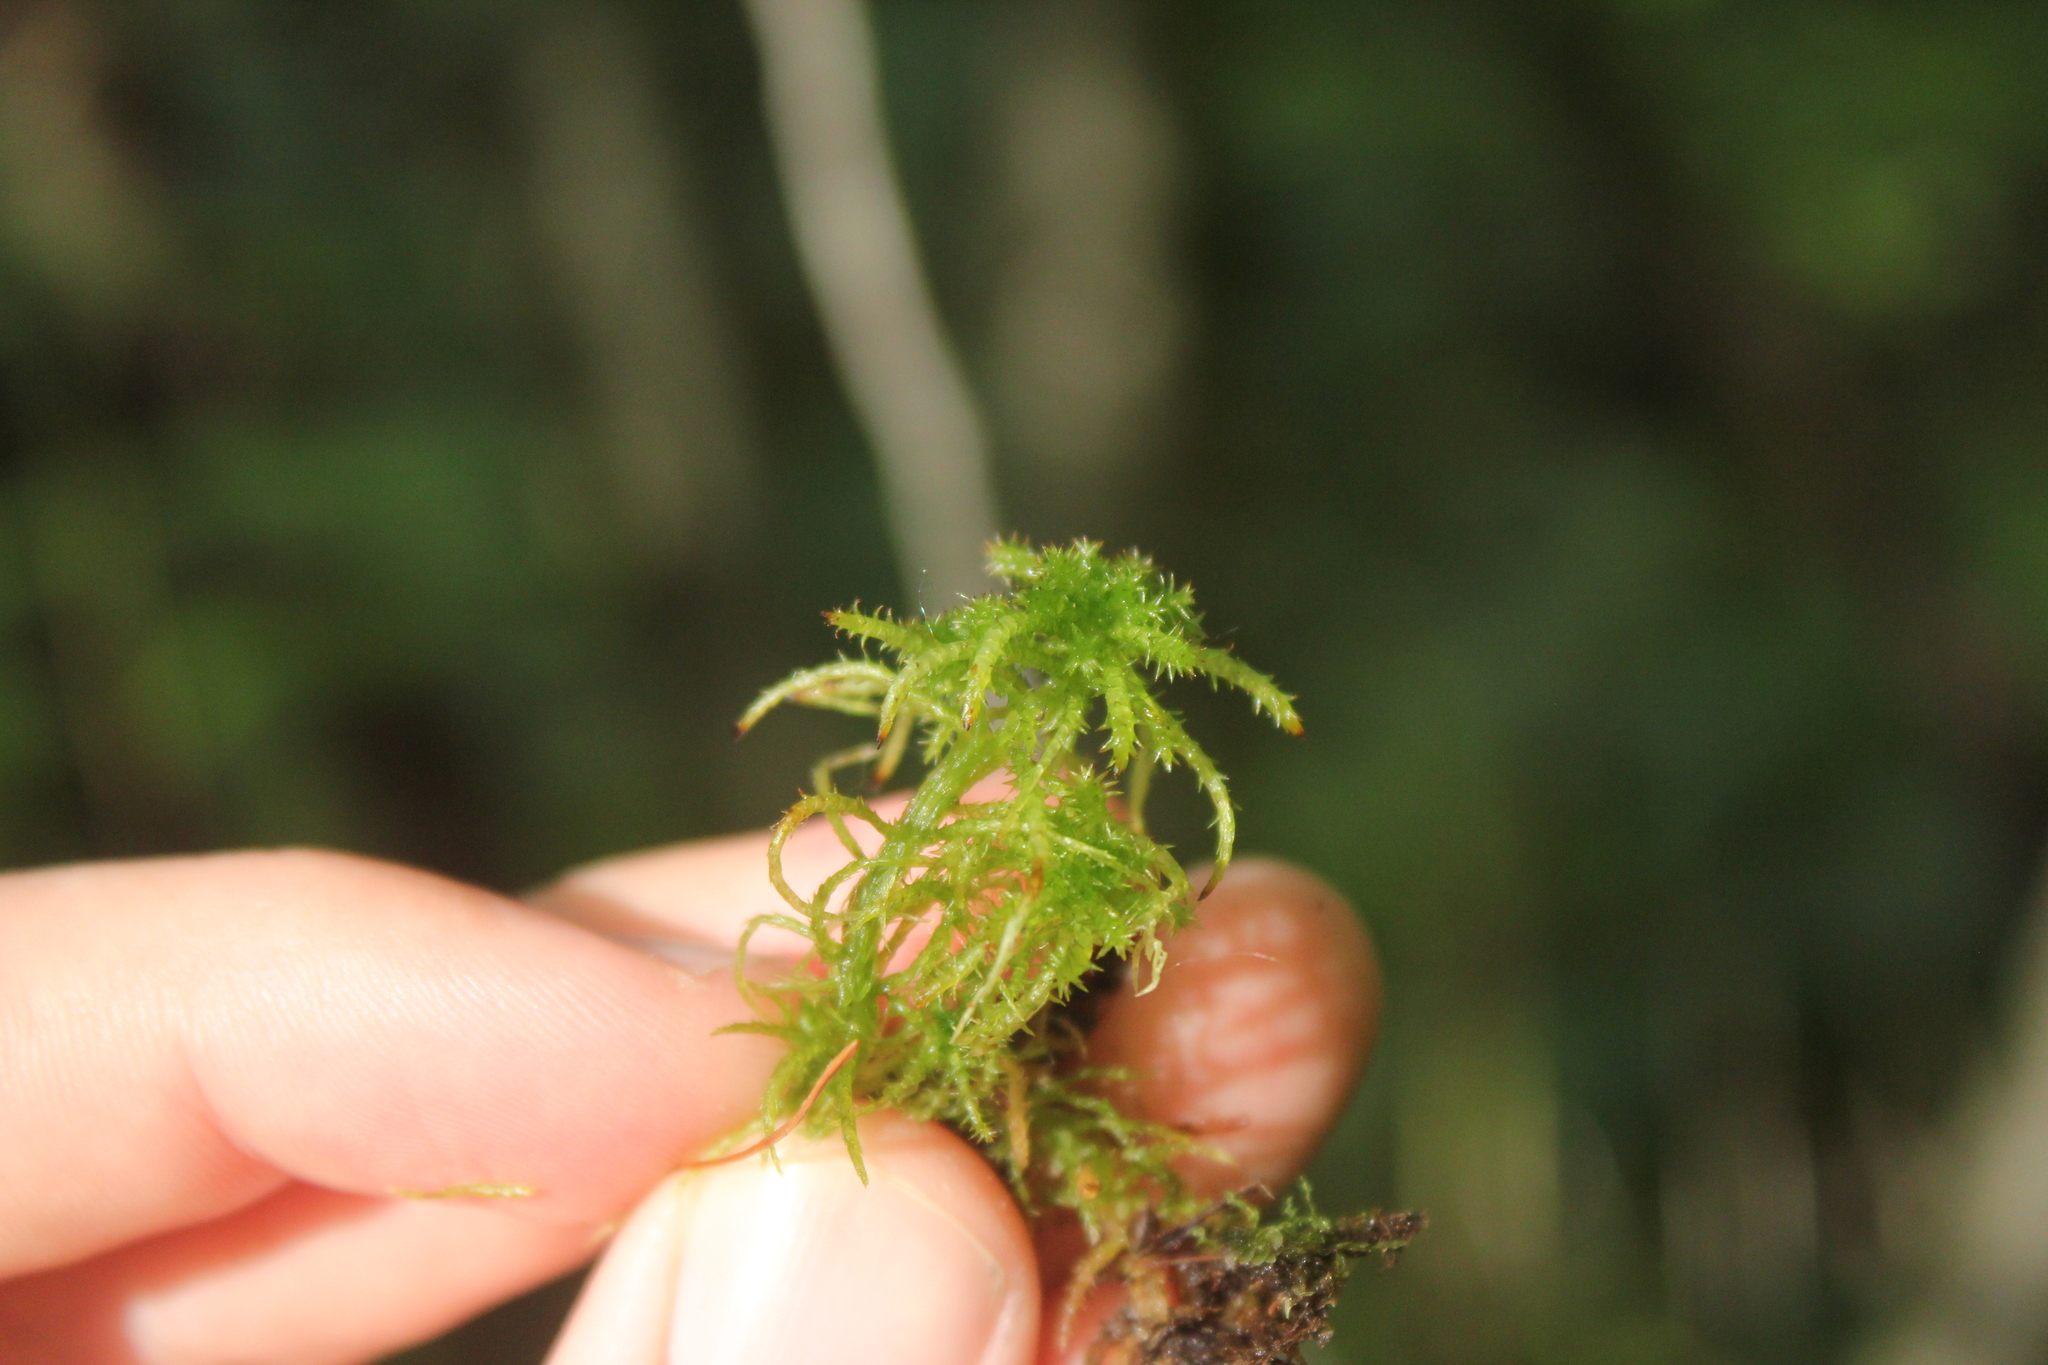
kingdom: Plantae
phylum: Bryophyta
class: Sphagnopsida
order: Sphagnales
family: Sphagnaceae
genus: Sphagnum
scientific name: Sphagnum squarrosum
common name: Shaggy peat moss
